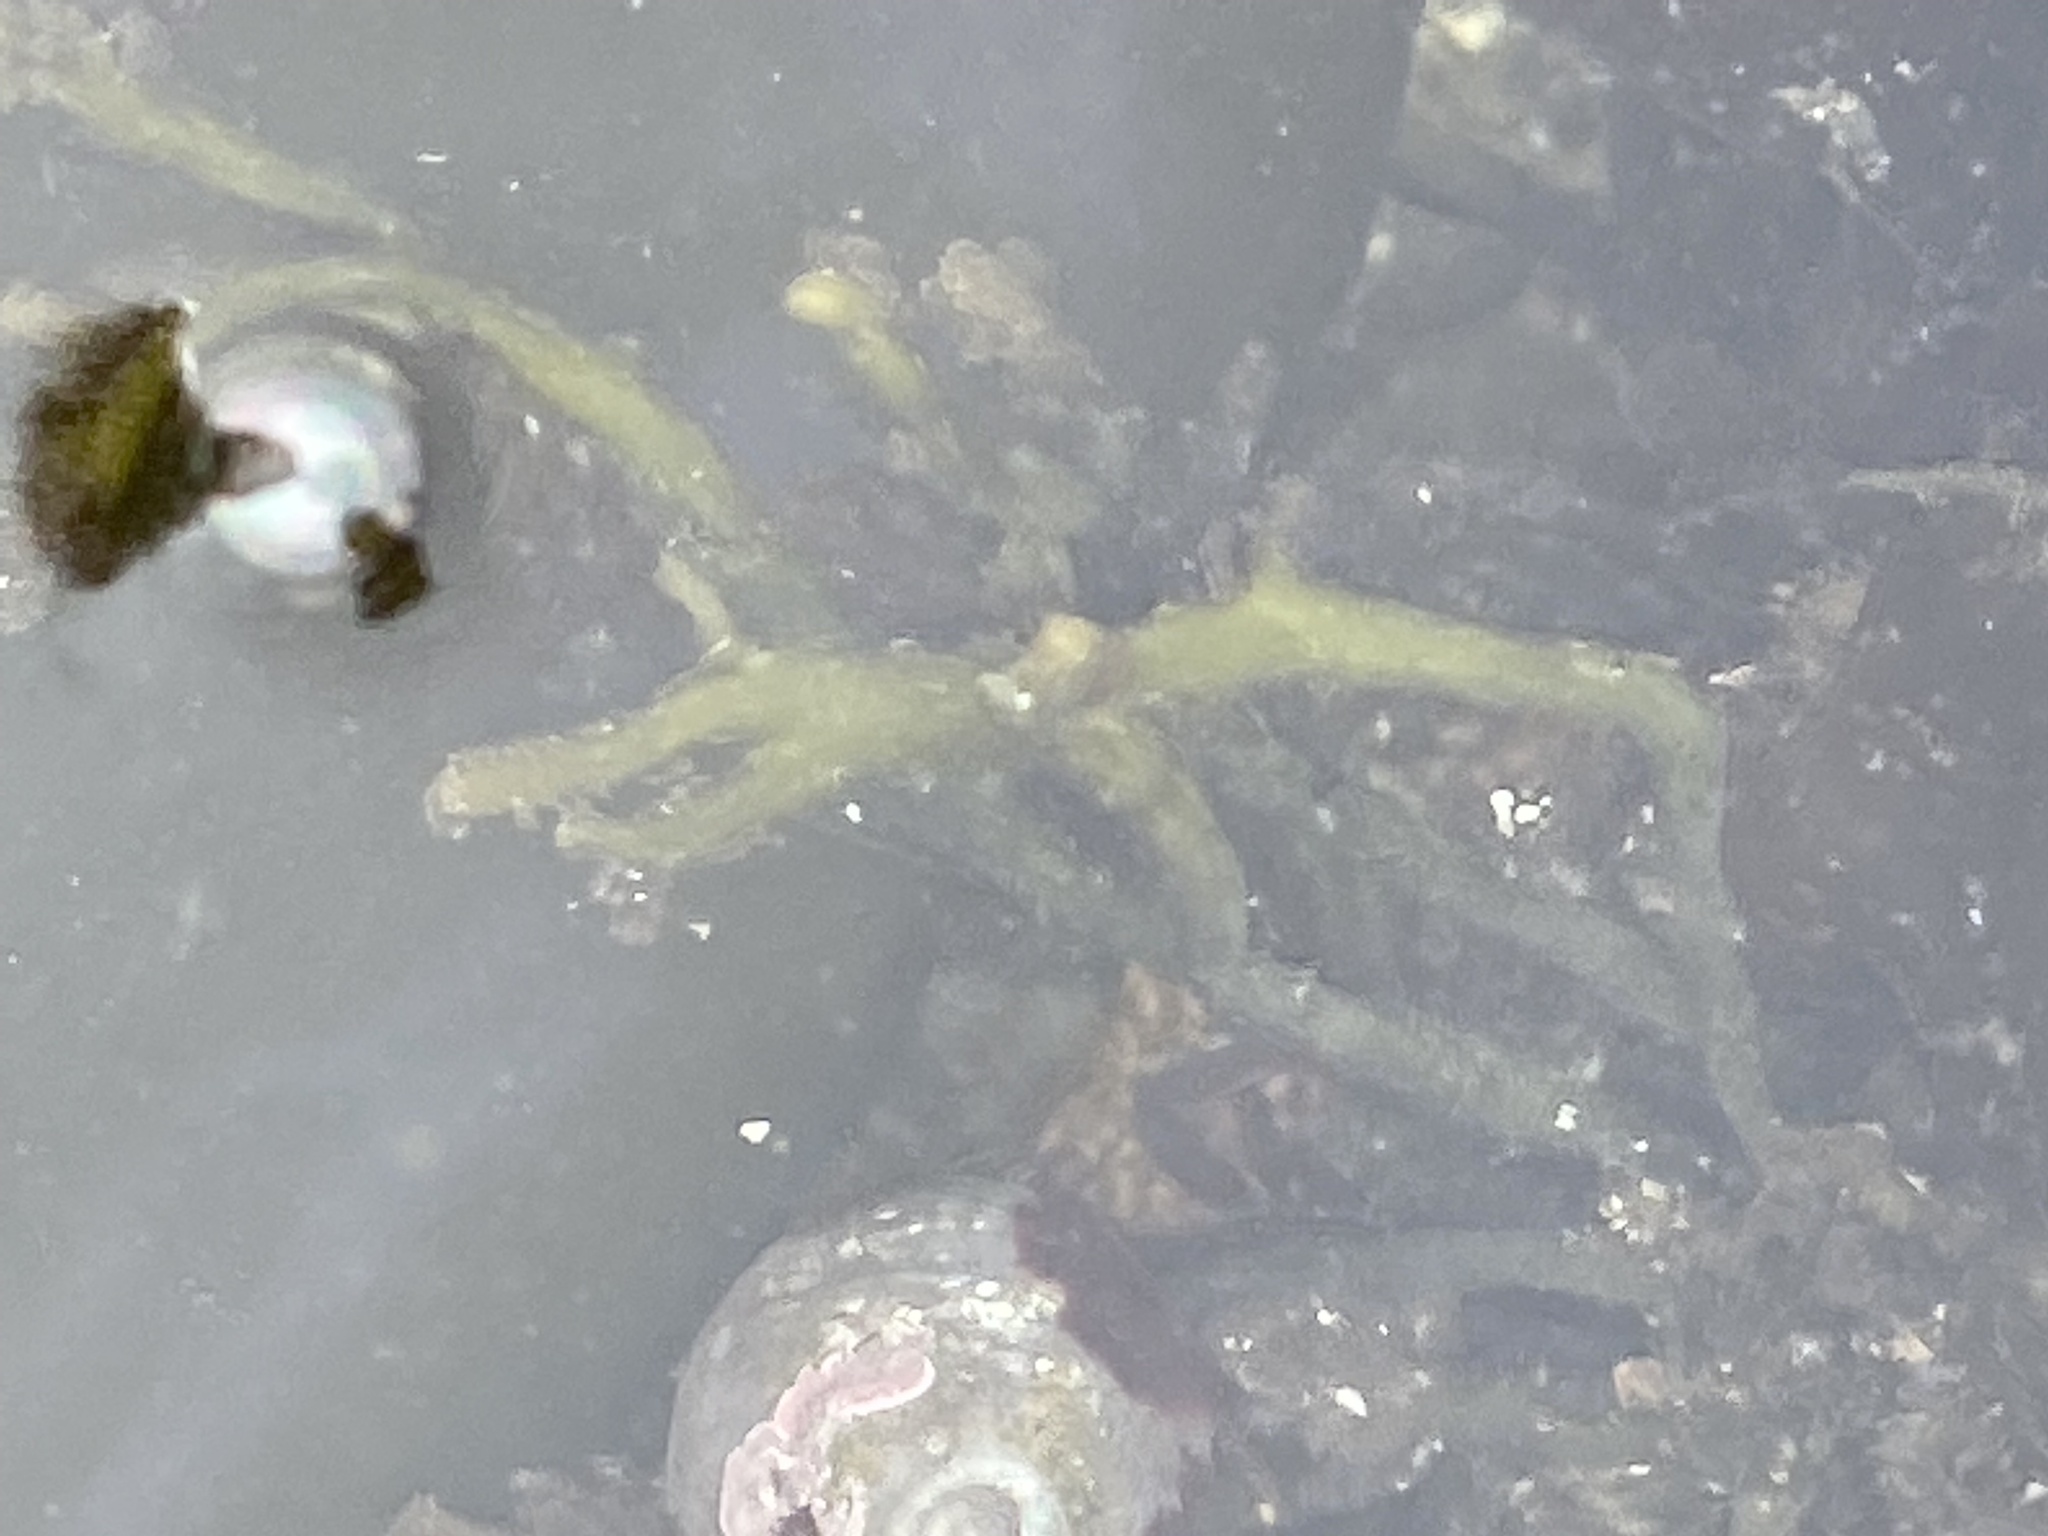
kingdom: Plantae
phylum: Rhodophyta
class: Florideophyceae
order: Rhodymeniales
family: Champiaceae
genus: Neogastroclonium
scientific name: Neogastroclonium subarticulatum
